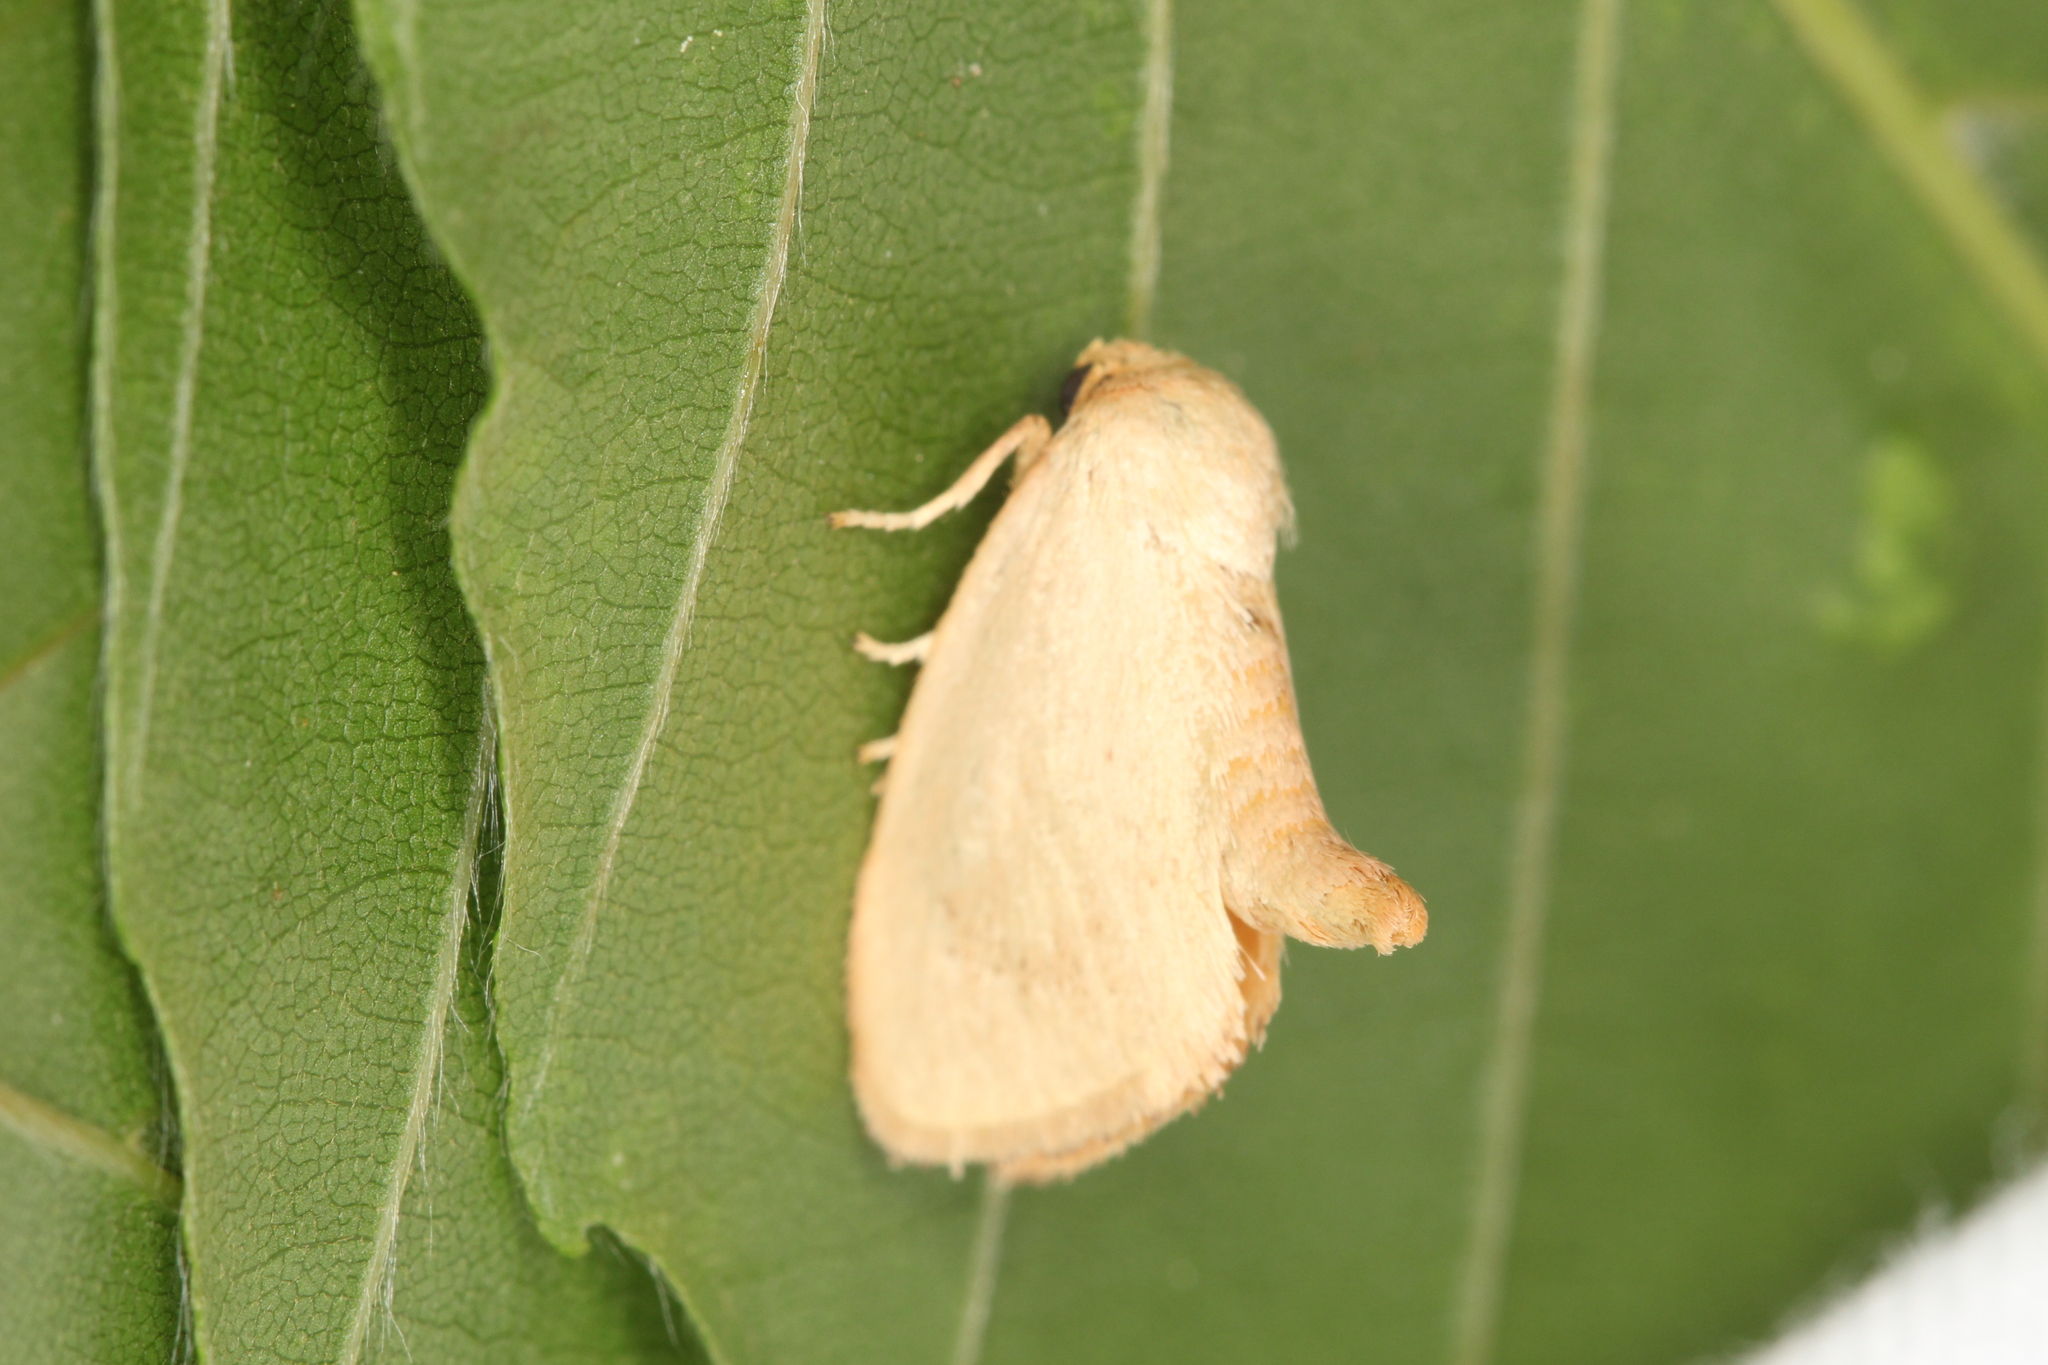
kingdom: Animalia
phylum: Arthropoda
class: Insecta
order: Lepidoptera
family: Limacodidae
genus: Tortricidia
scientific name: Tortricidia pallida
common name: Red-crossed button slug moth
